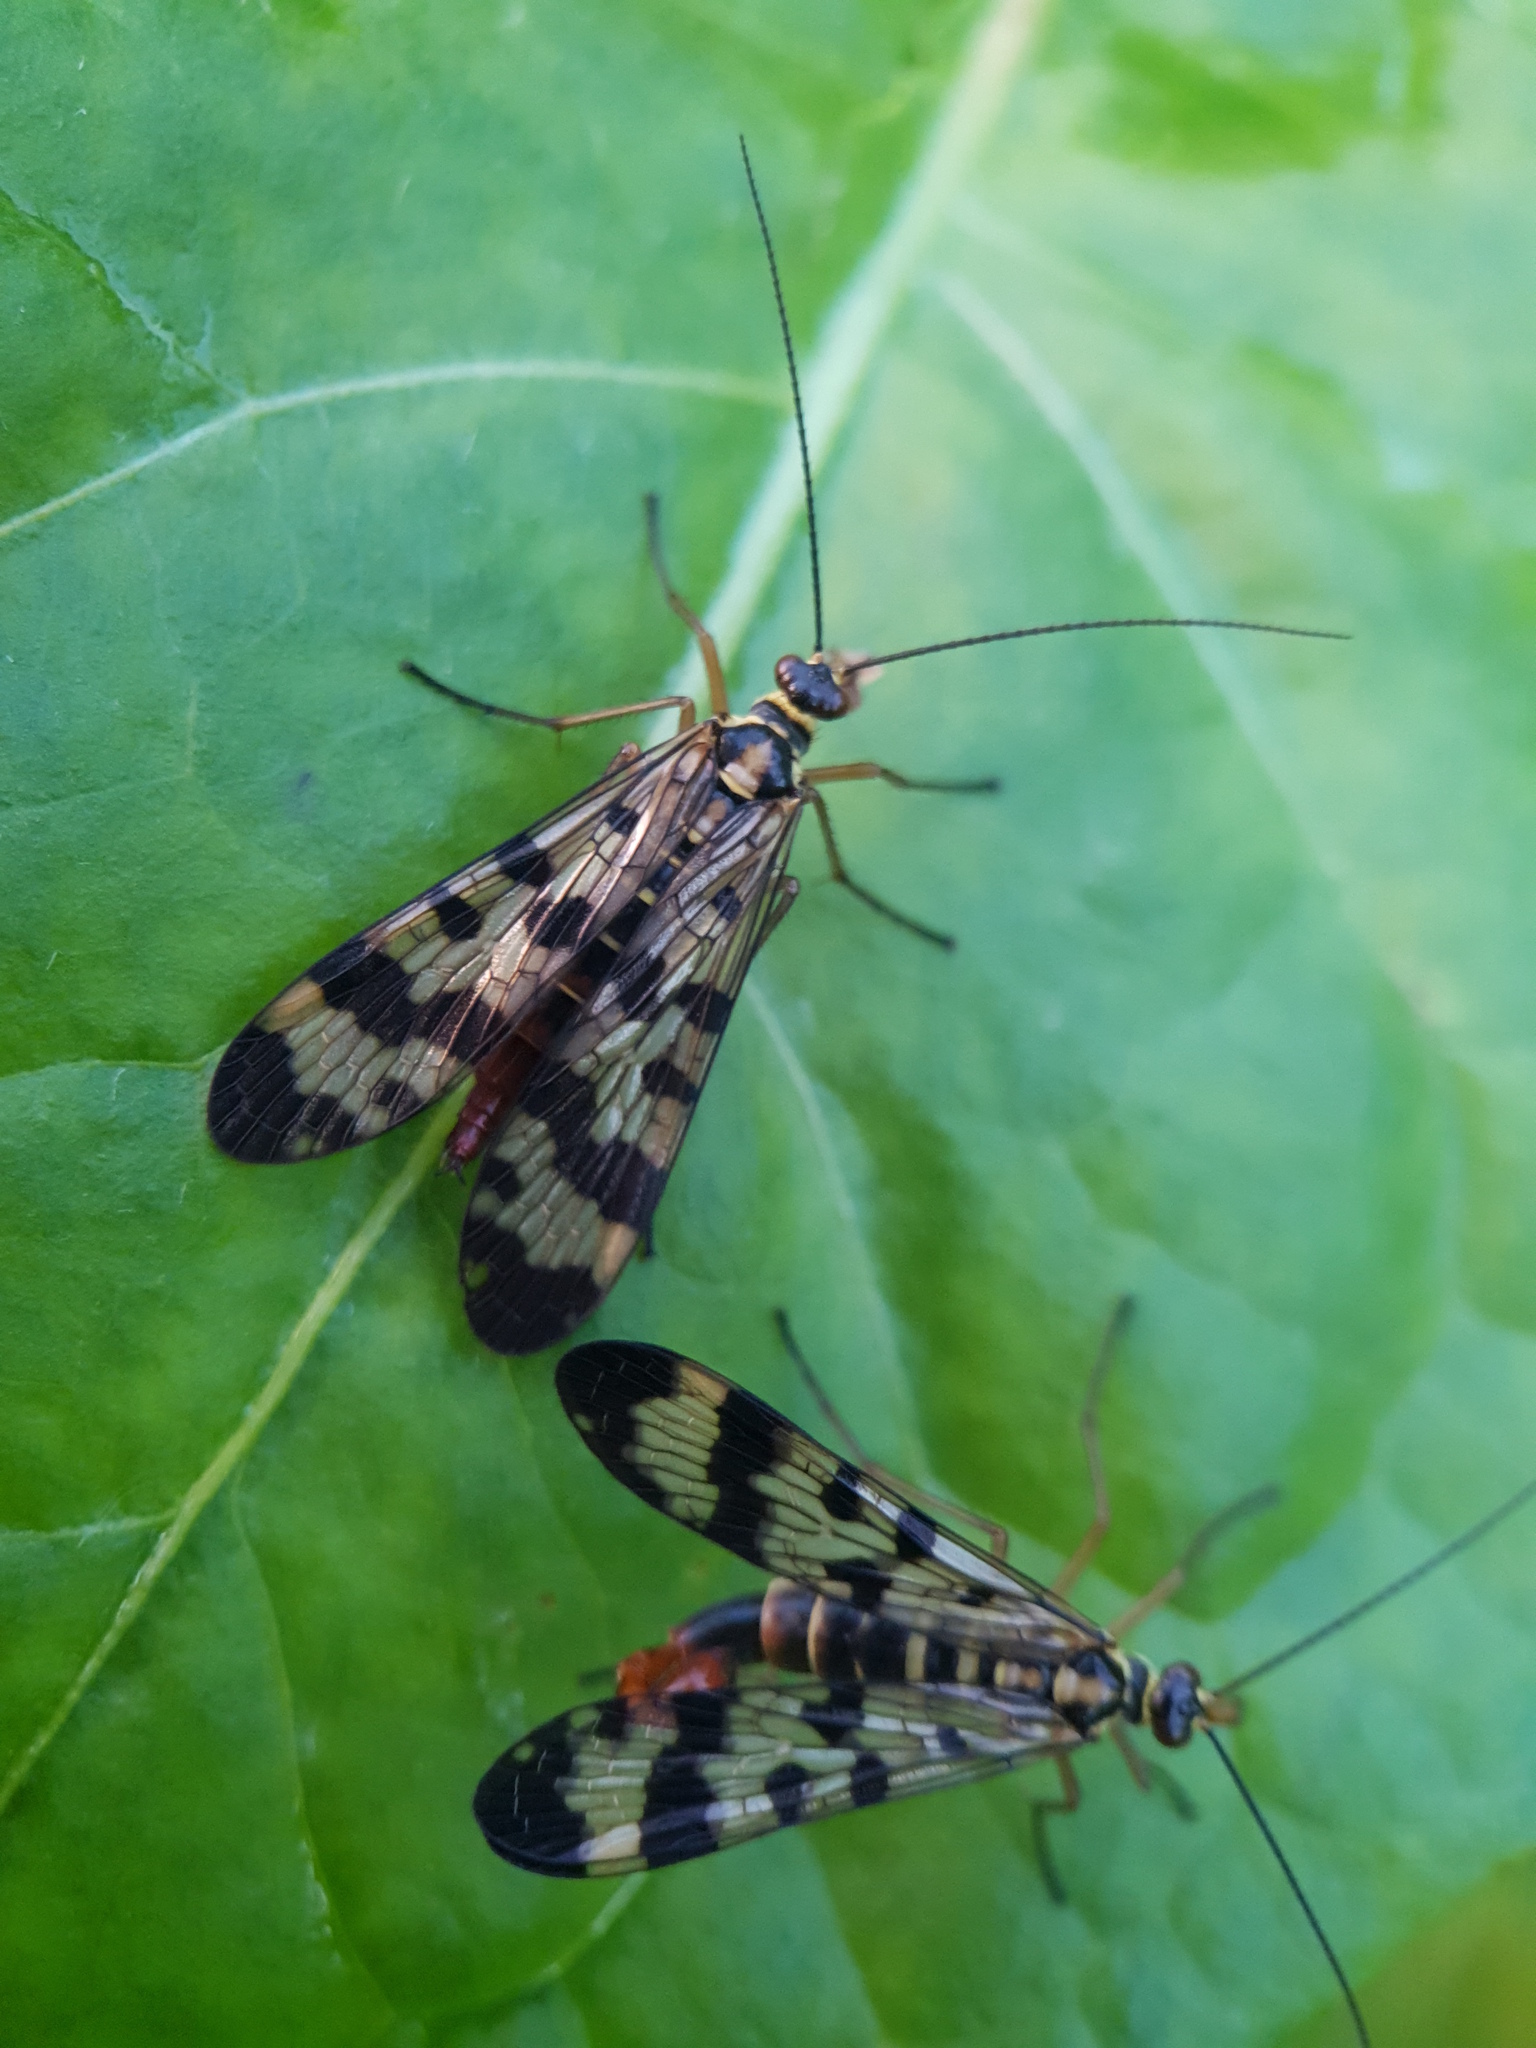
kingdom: Animalia
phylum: Arthropoda
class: Insecta
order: Mecoptera
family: Panorpidae
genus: Panorpa
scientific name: Panorpa communis
